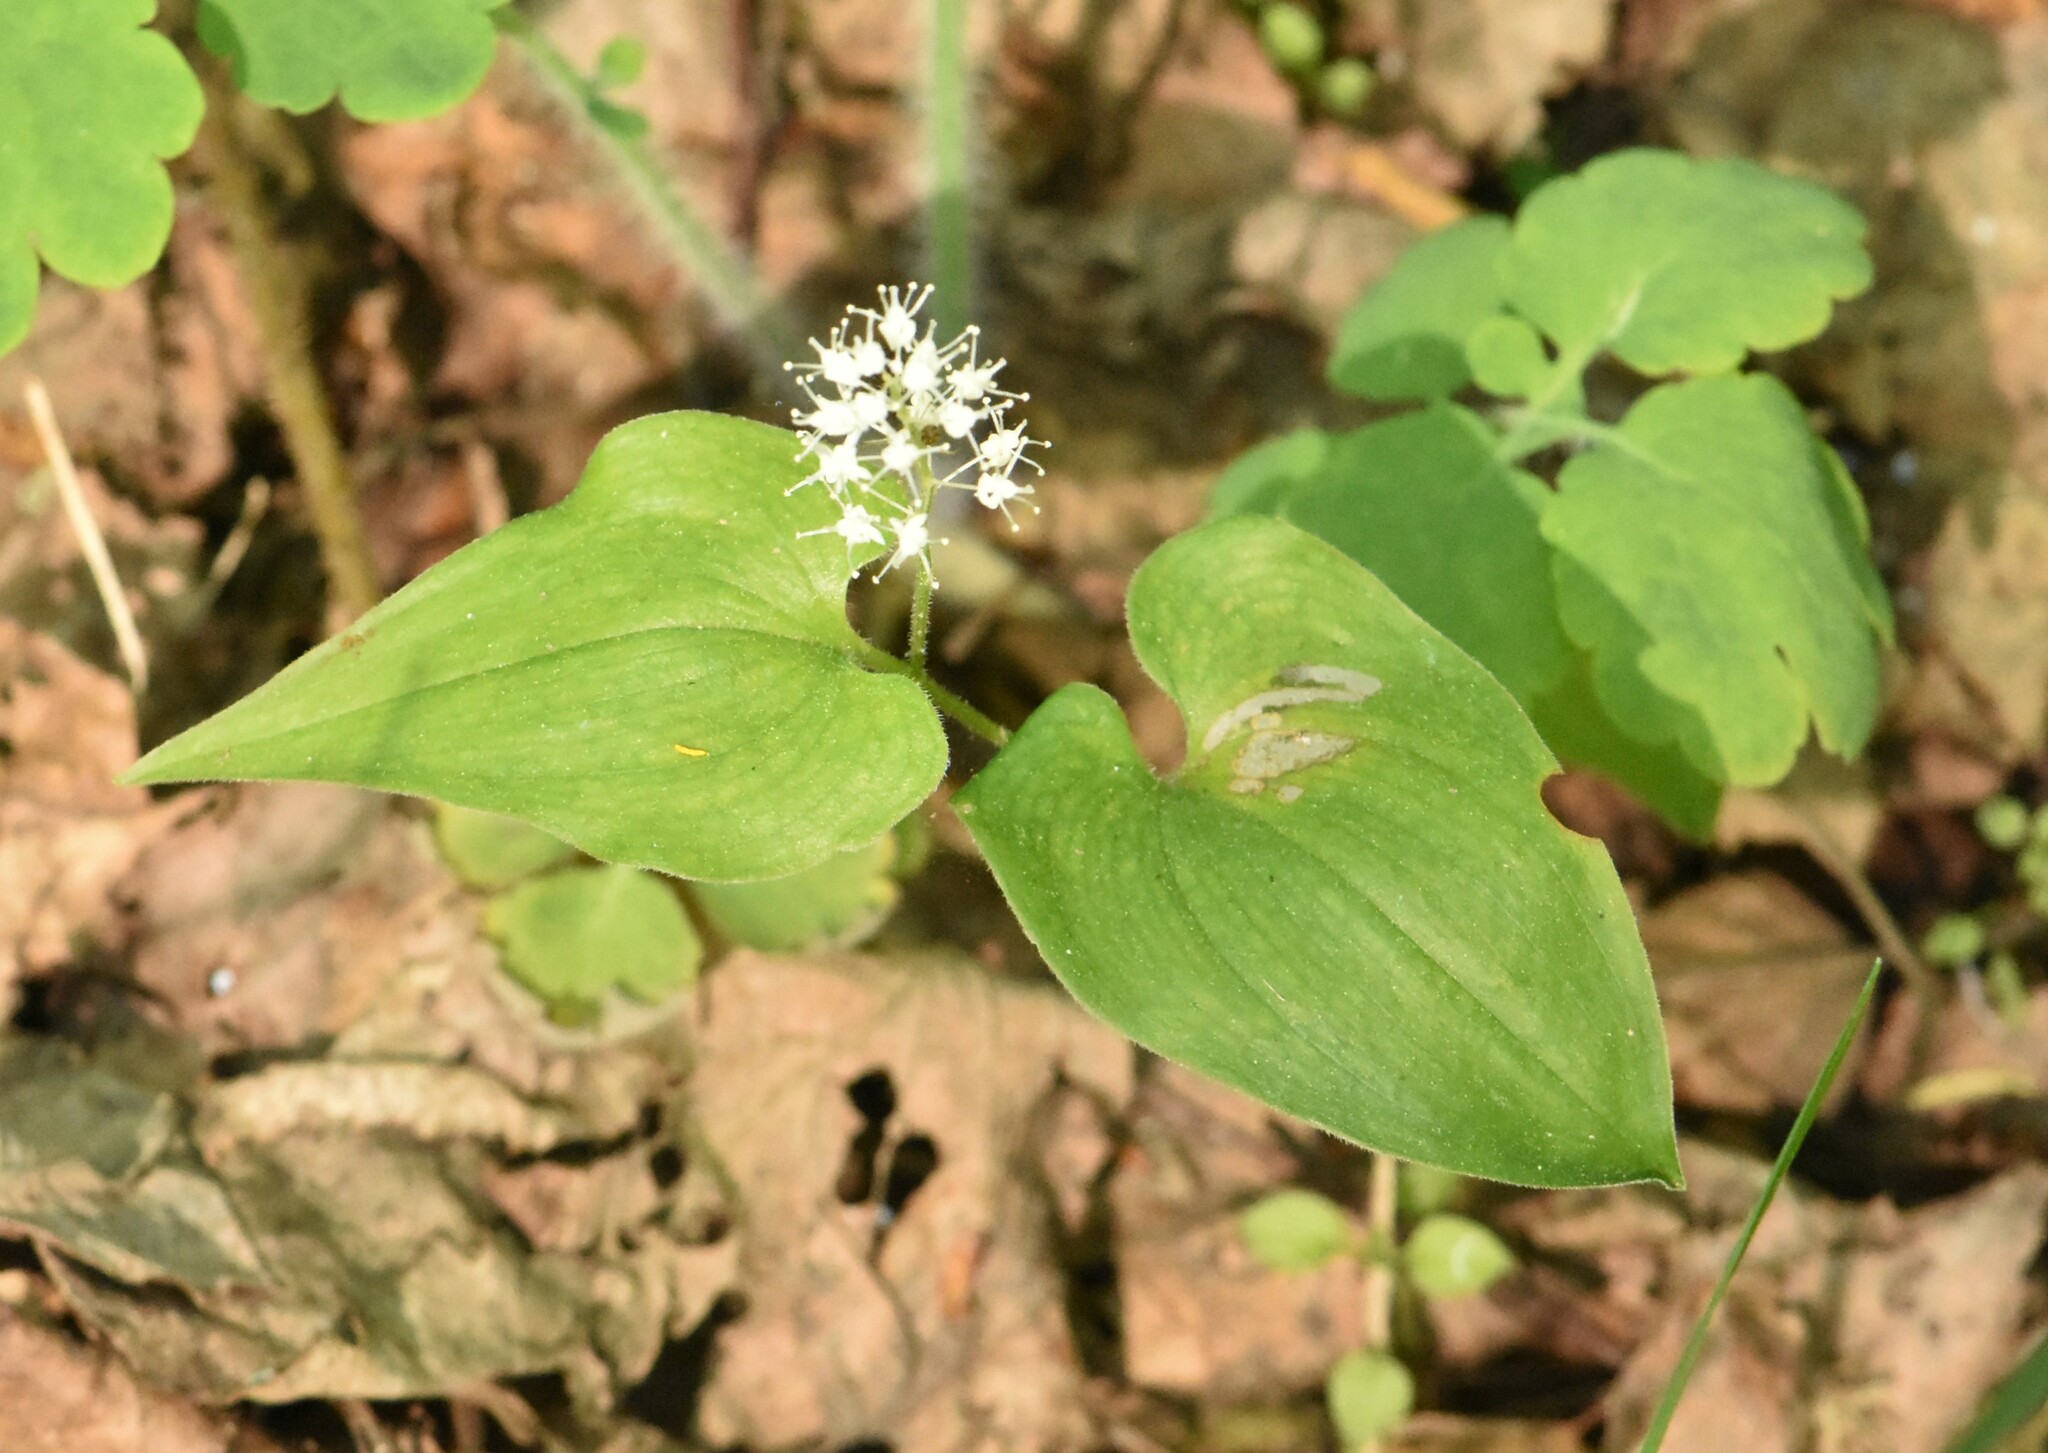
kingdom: Plantae
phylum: Tracheophyta
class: Liliopsida
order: Asparagales
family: Asparagaceae
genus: Maianthemum
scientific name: Maianthemum bifolium
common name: May lily
